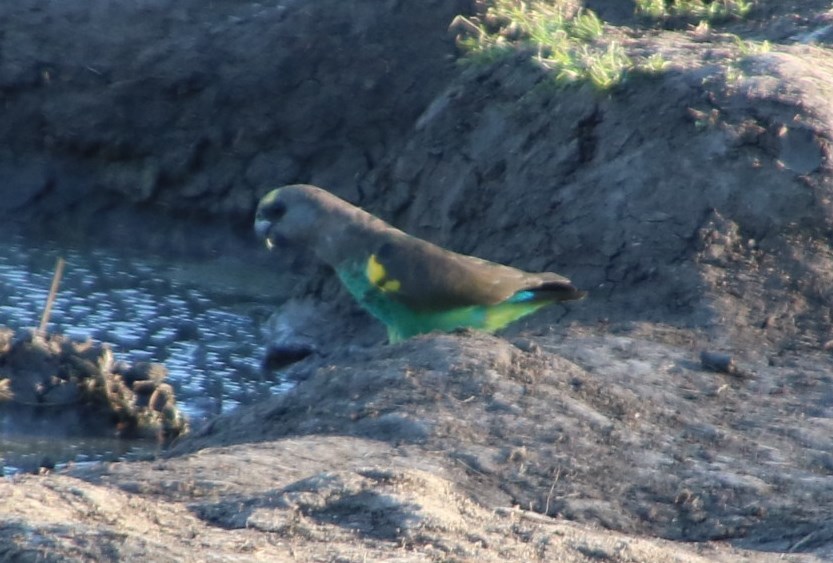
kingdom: Animalia
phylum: Chordata
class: Aves
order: Psittaciformes
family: Psittacidae
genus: Poicephalus
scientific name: Poicephalus meyeri
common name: Meyer's parrot
